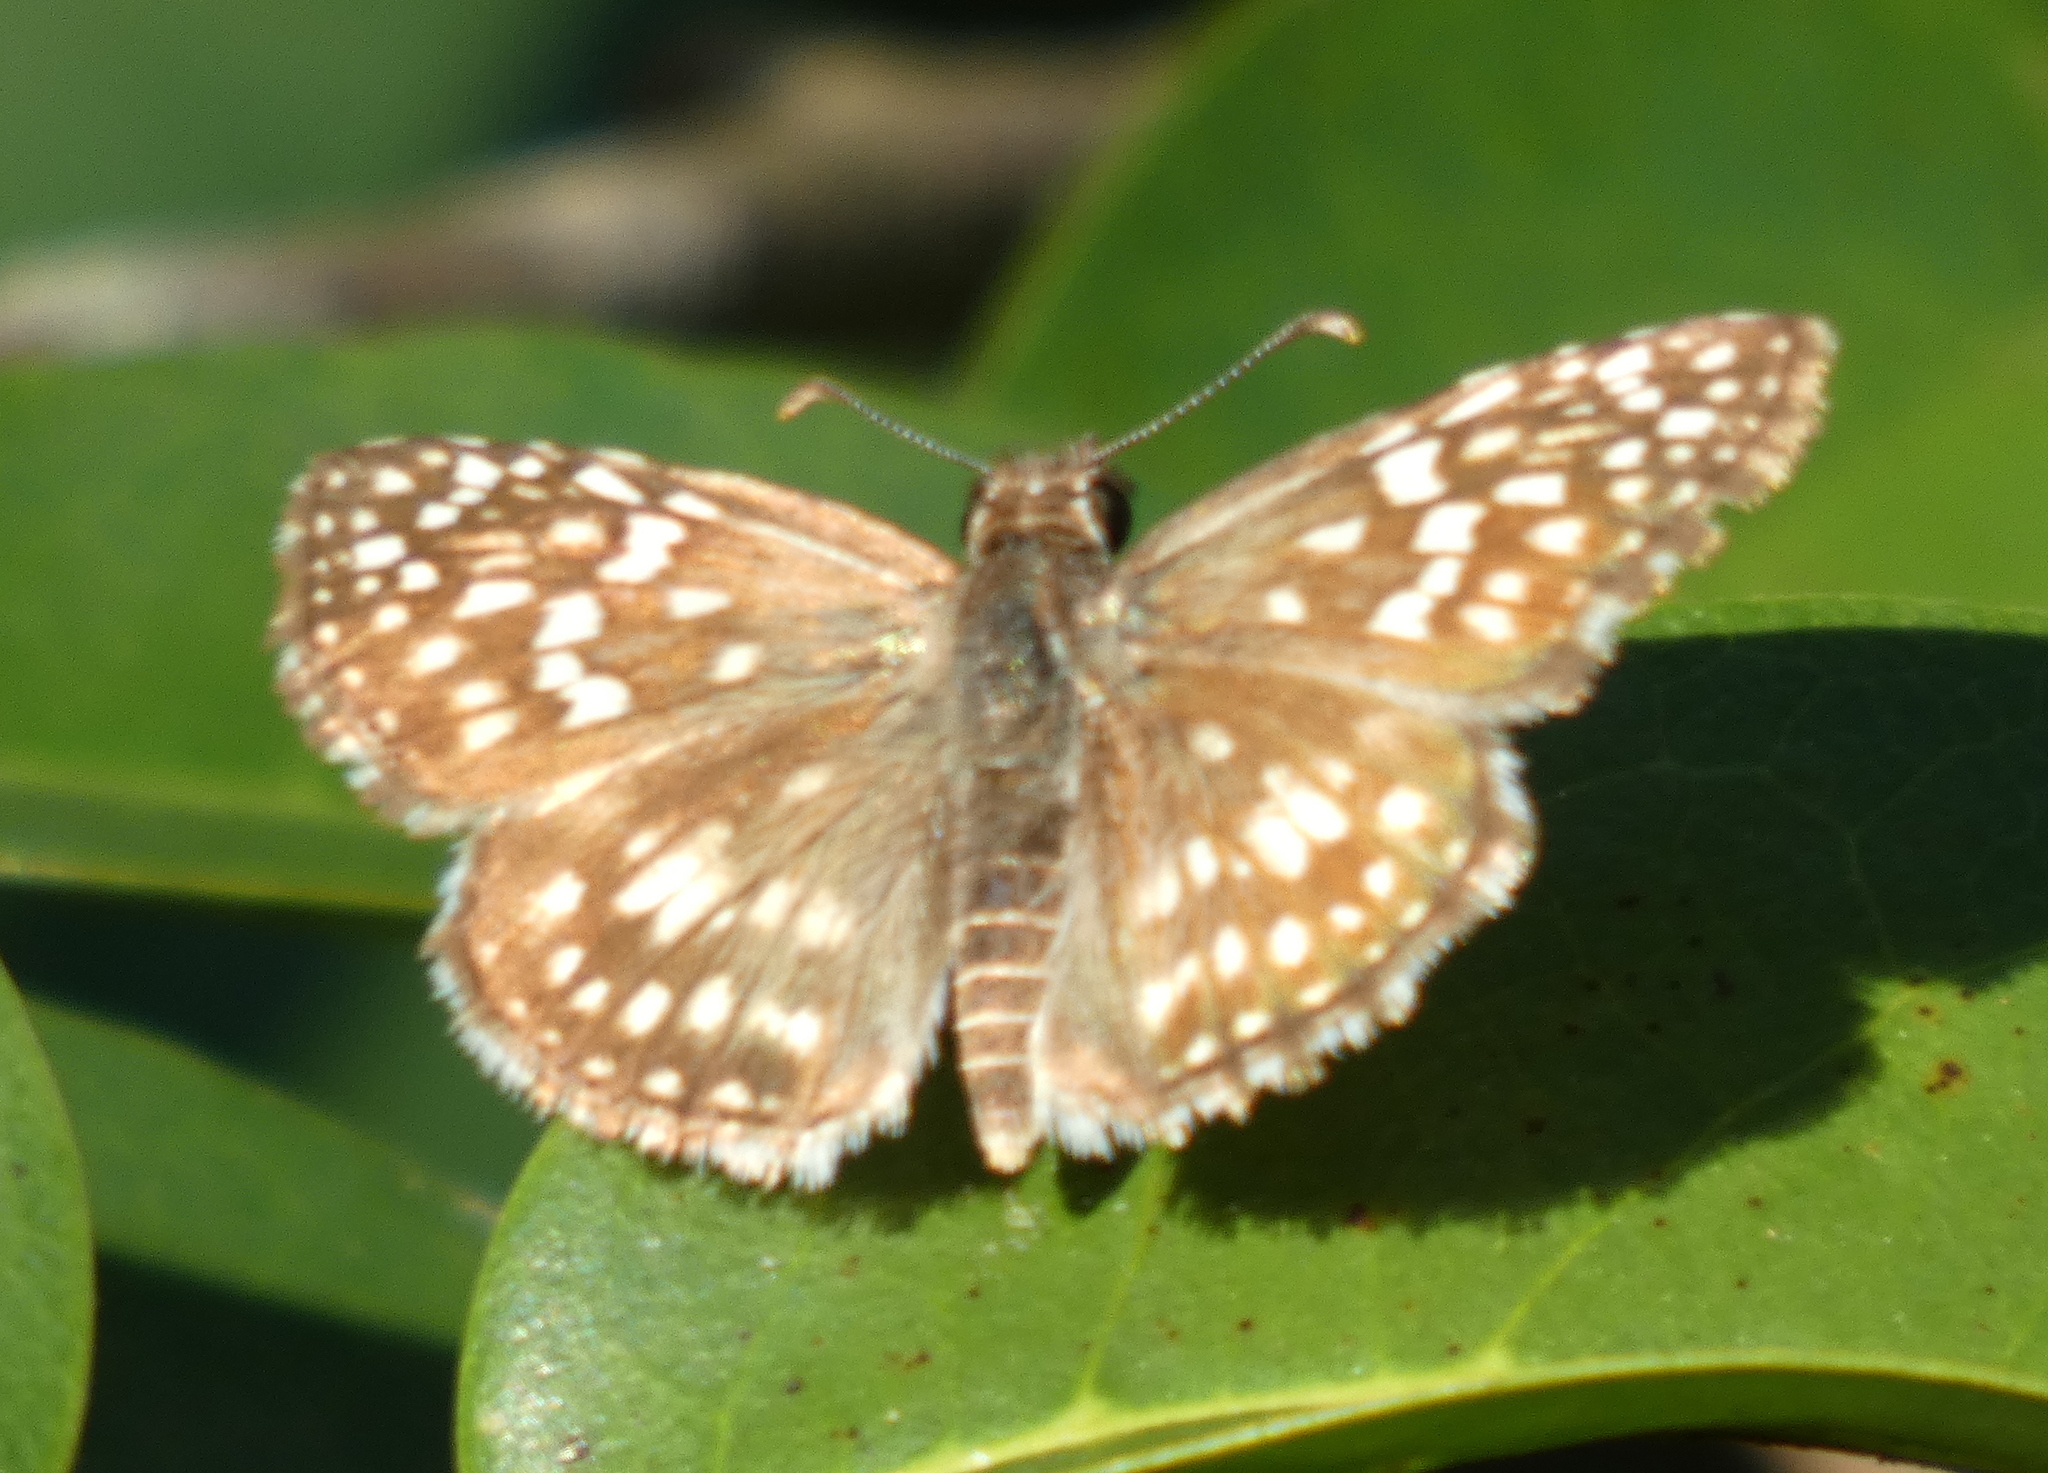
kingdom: Animalia
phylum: Arthropoda
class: Insecta
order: Lepidoptera
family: Hesperiidae
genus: Pyrgus
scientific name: Pyrgus oileus
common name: Tropical checkered-skipper
